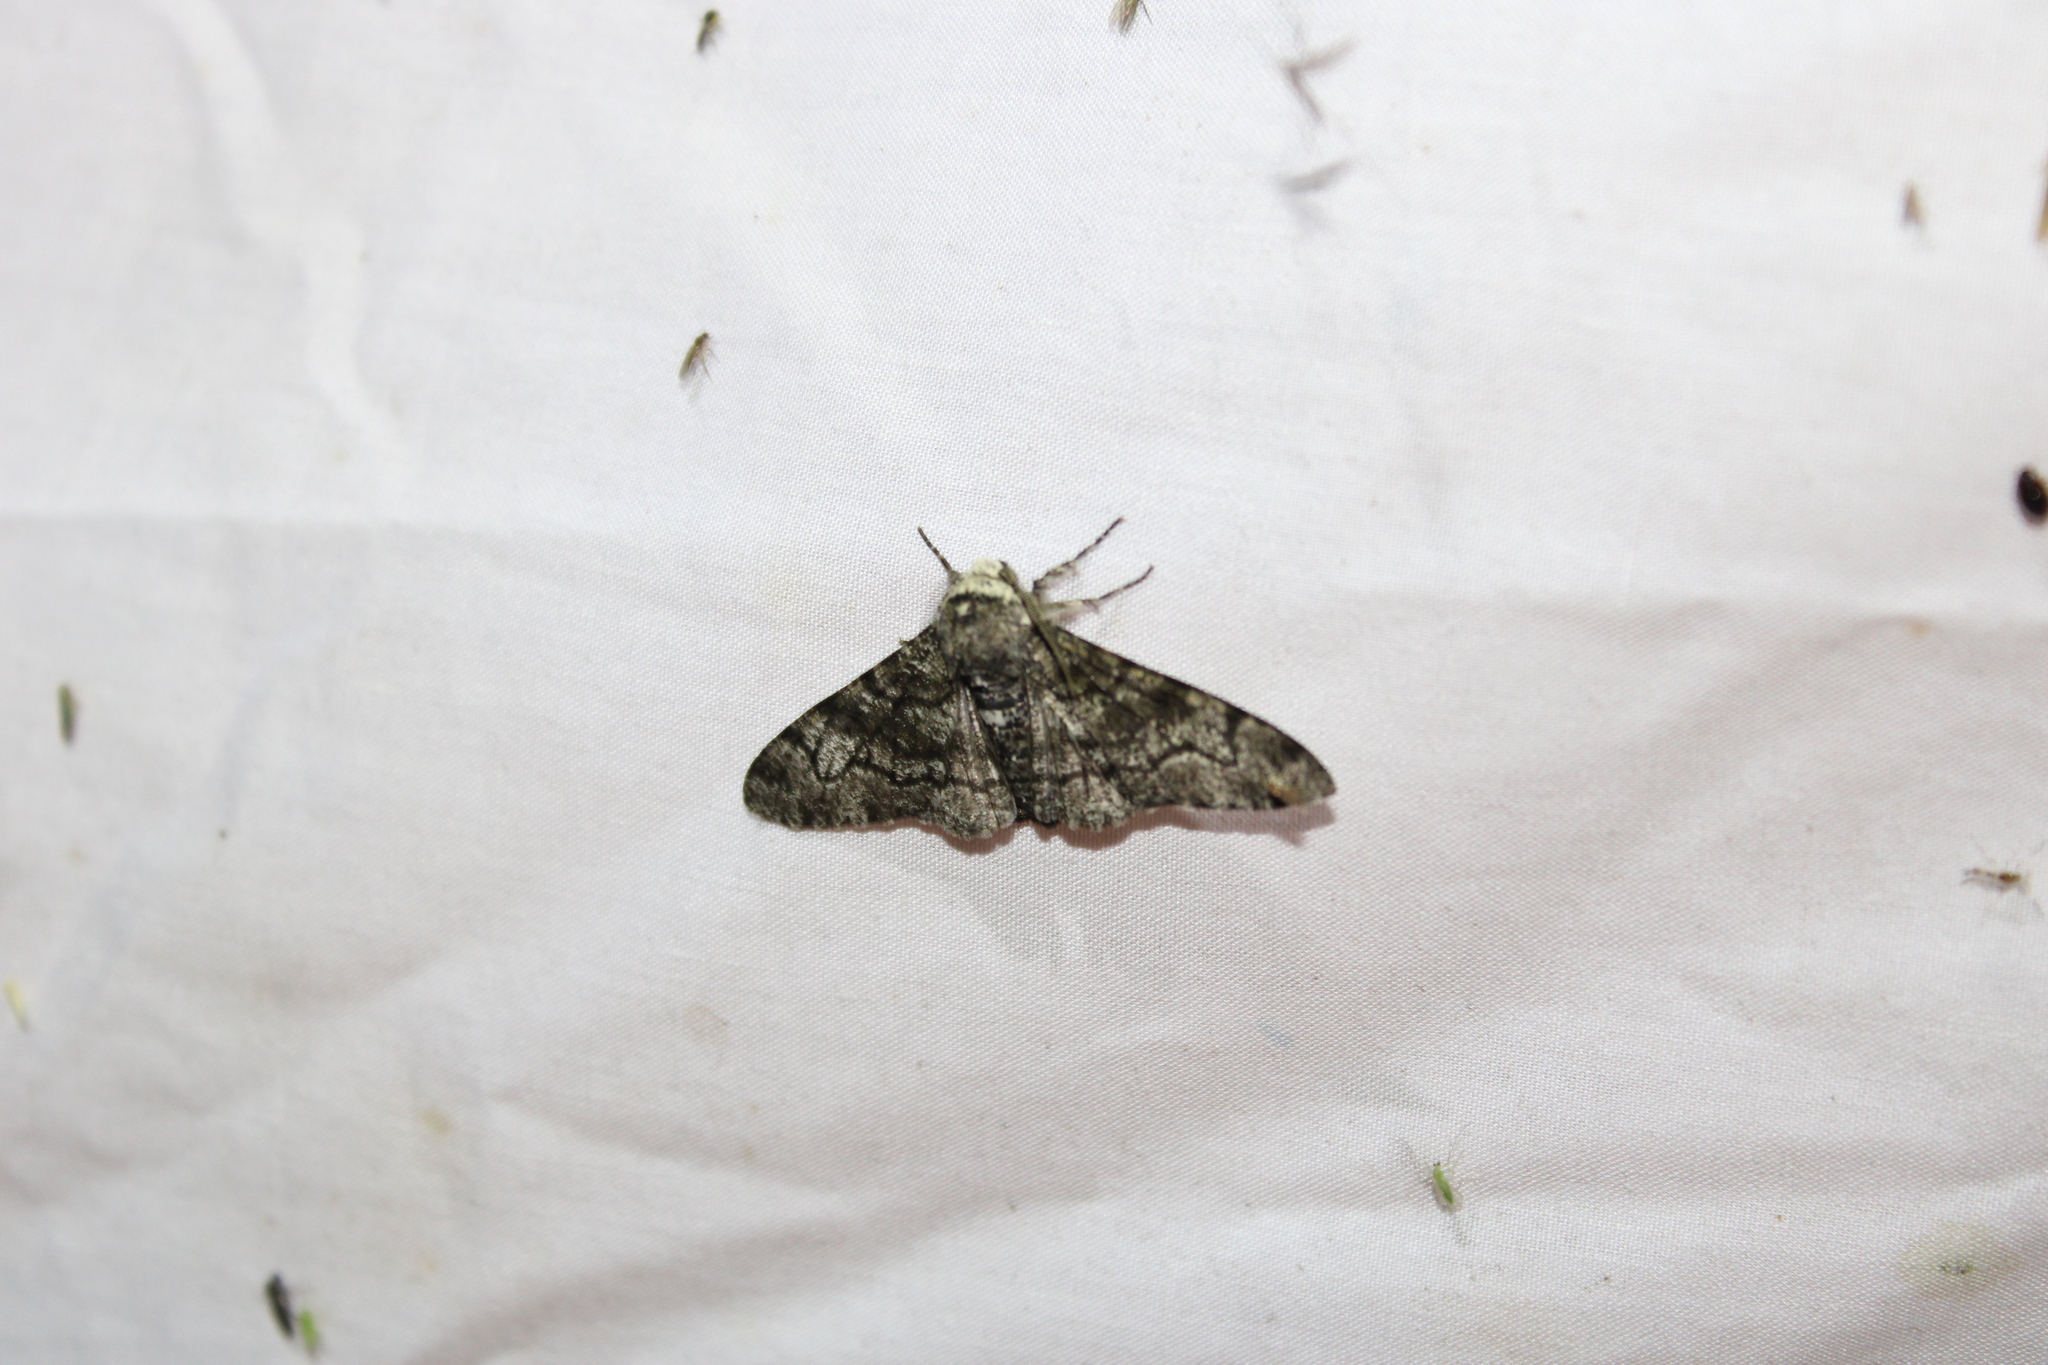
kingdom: Animalia
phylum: Arthropoda
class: Insecta
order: Lepidoptera
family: Geometridae
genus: Biston
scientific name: Biston betularia
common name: Peppered moth
